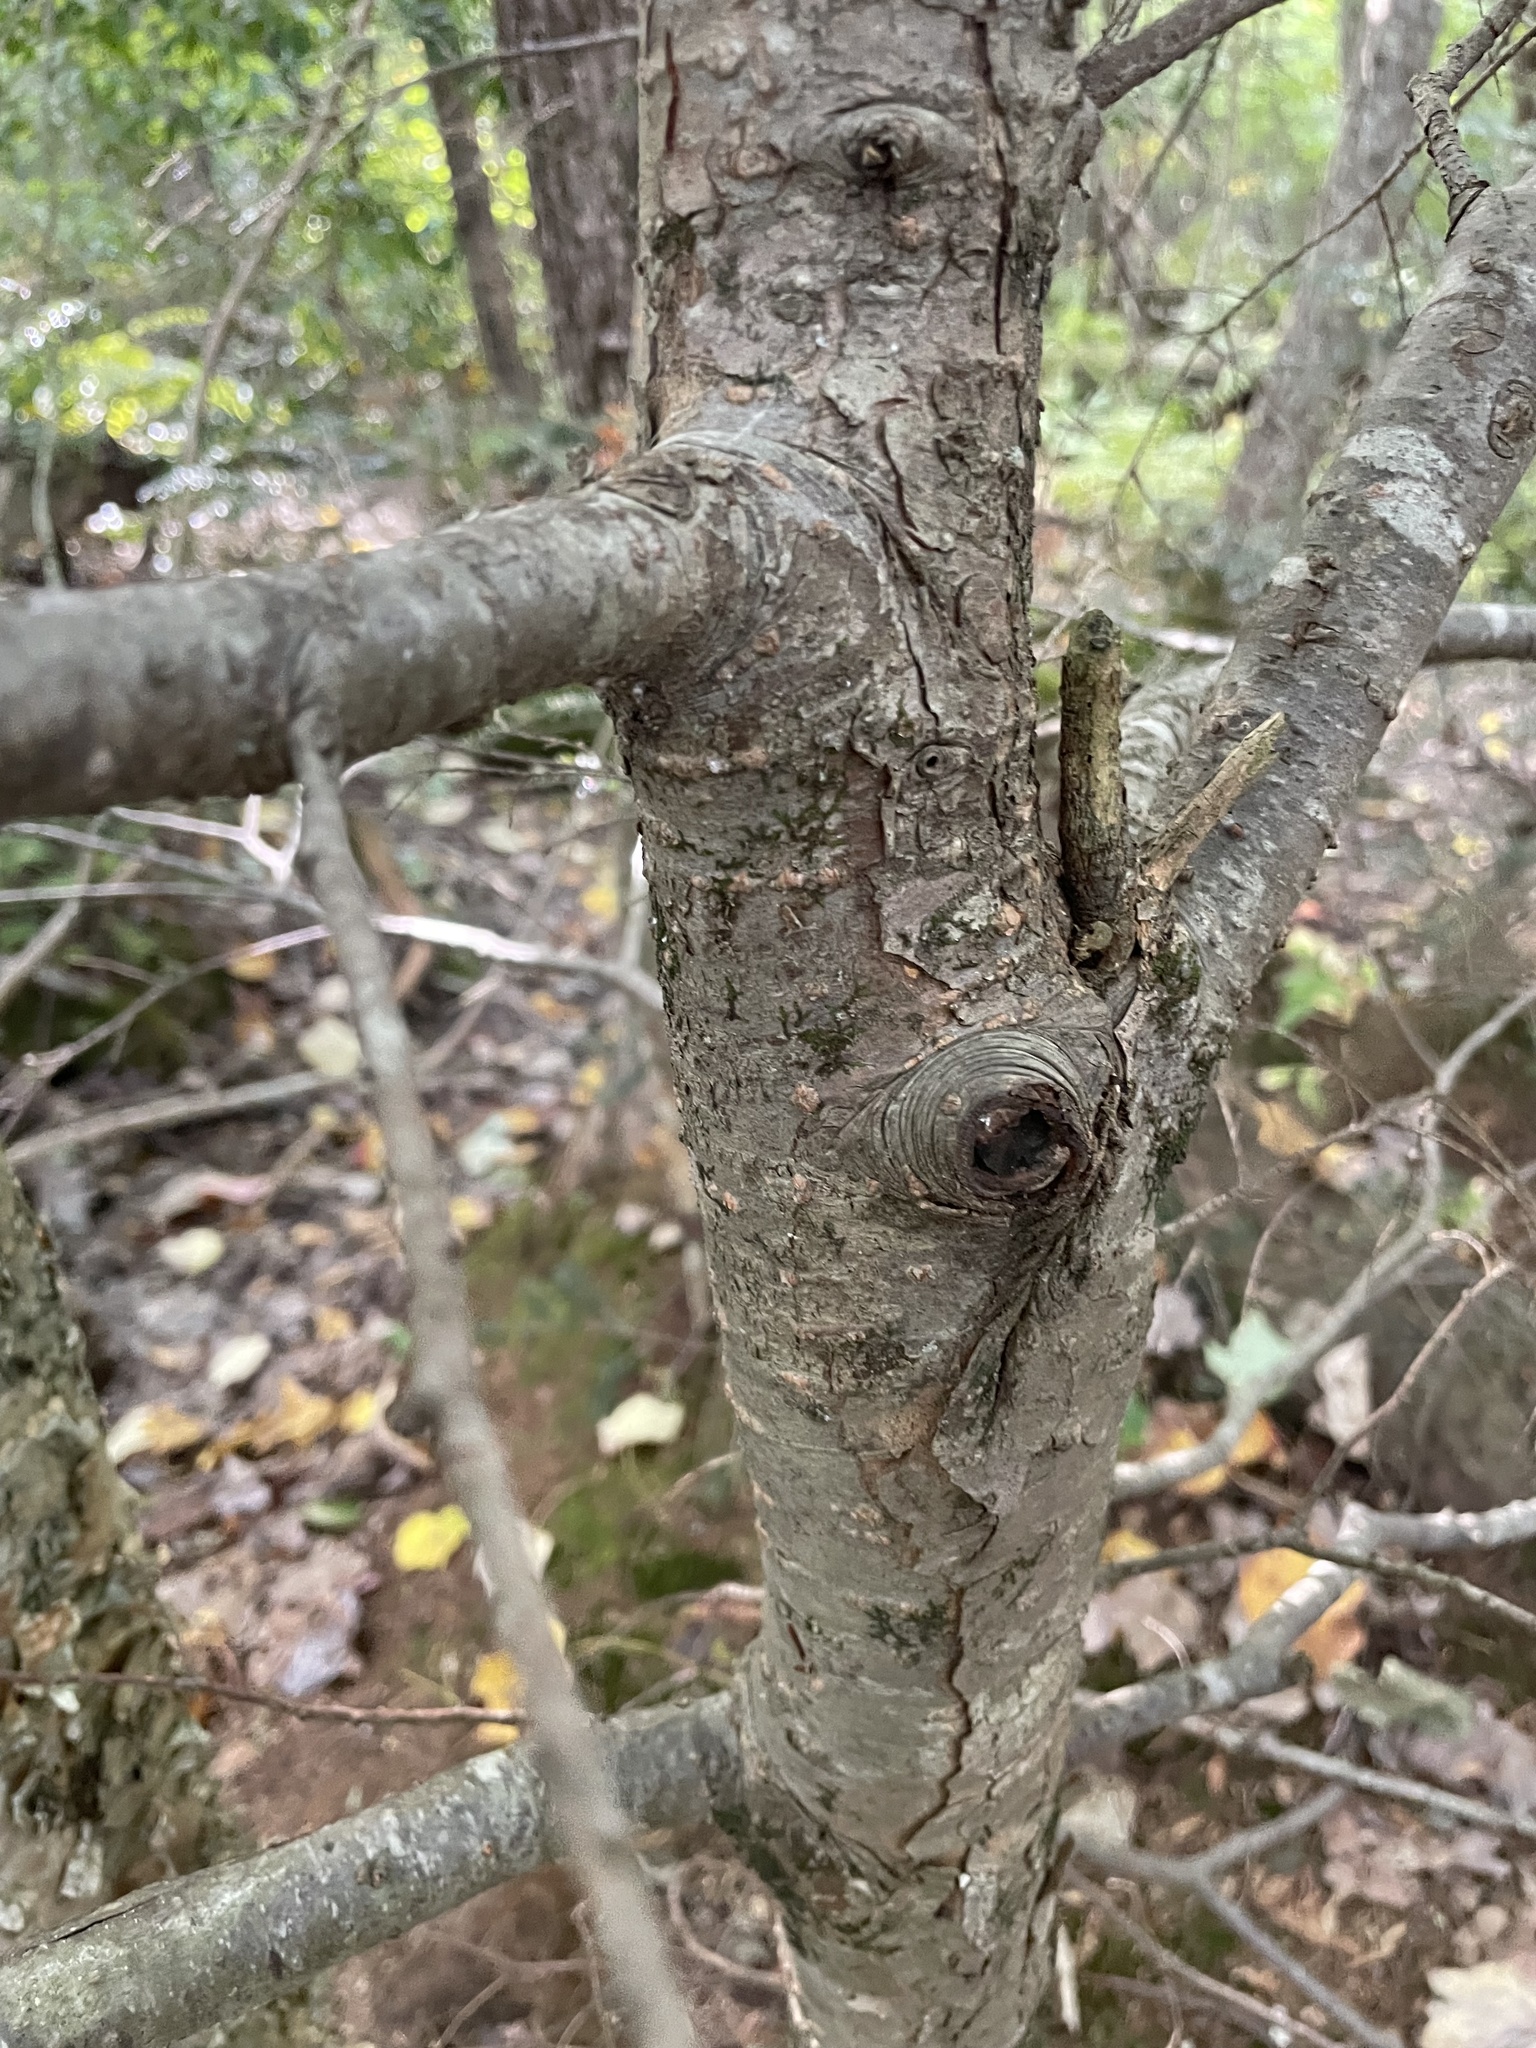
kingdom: Plantae
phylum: Tracheophyta
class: Pinopsida
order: Pinales
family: Pinaceae
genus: Tsuga
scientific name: Tsuga canadensis
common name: Eastern hemlock
